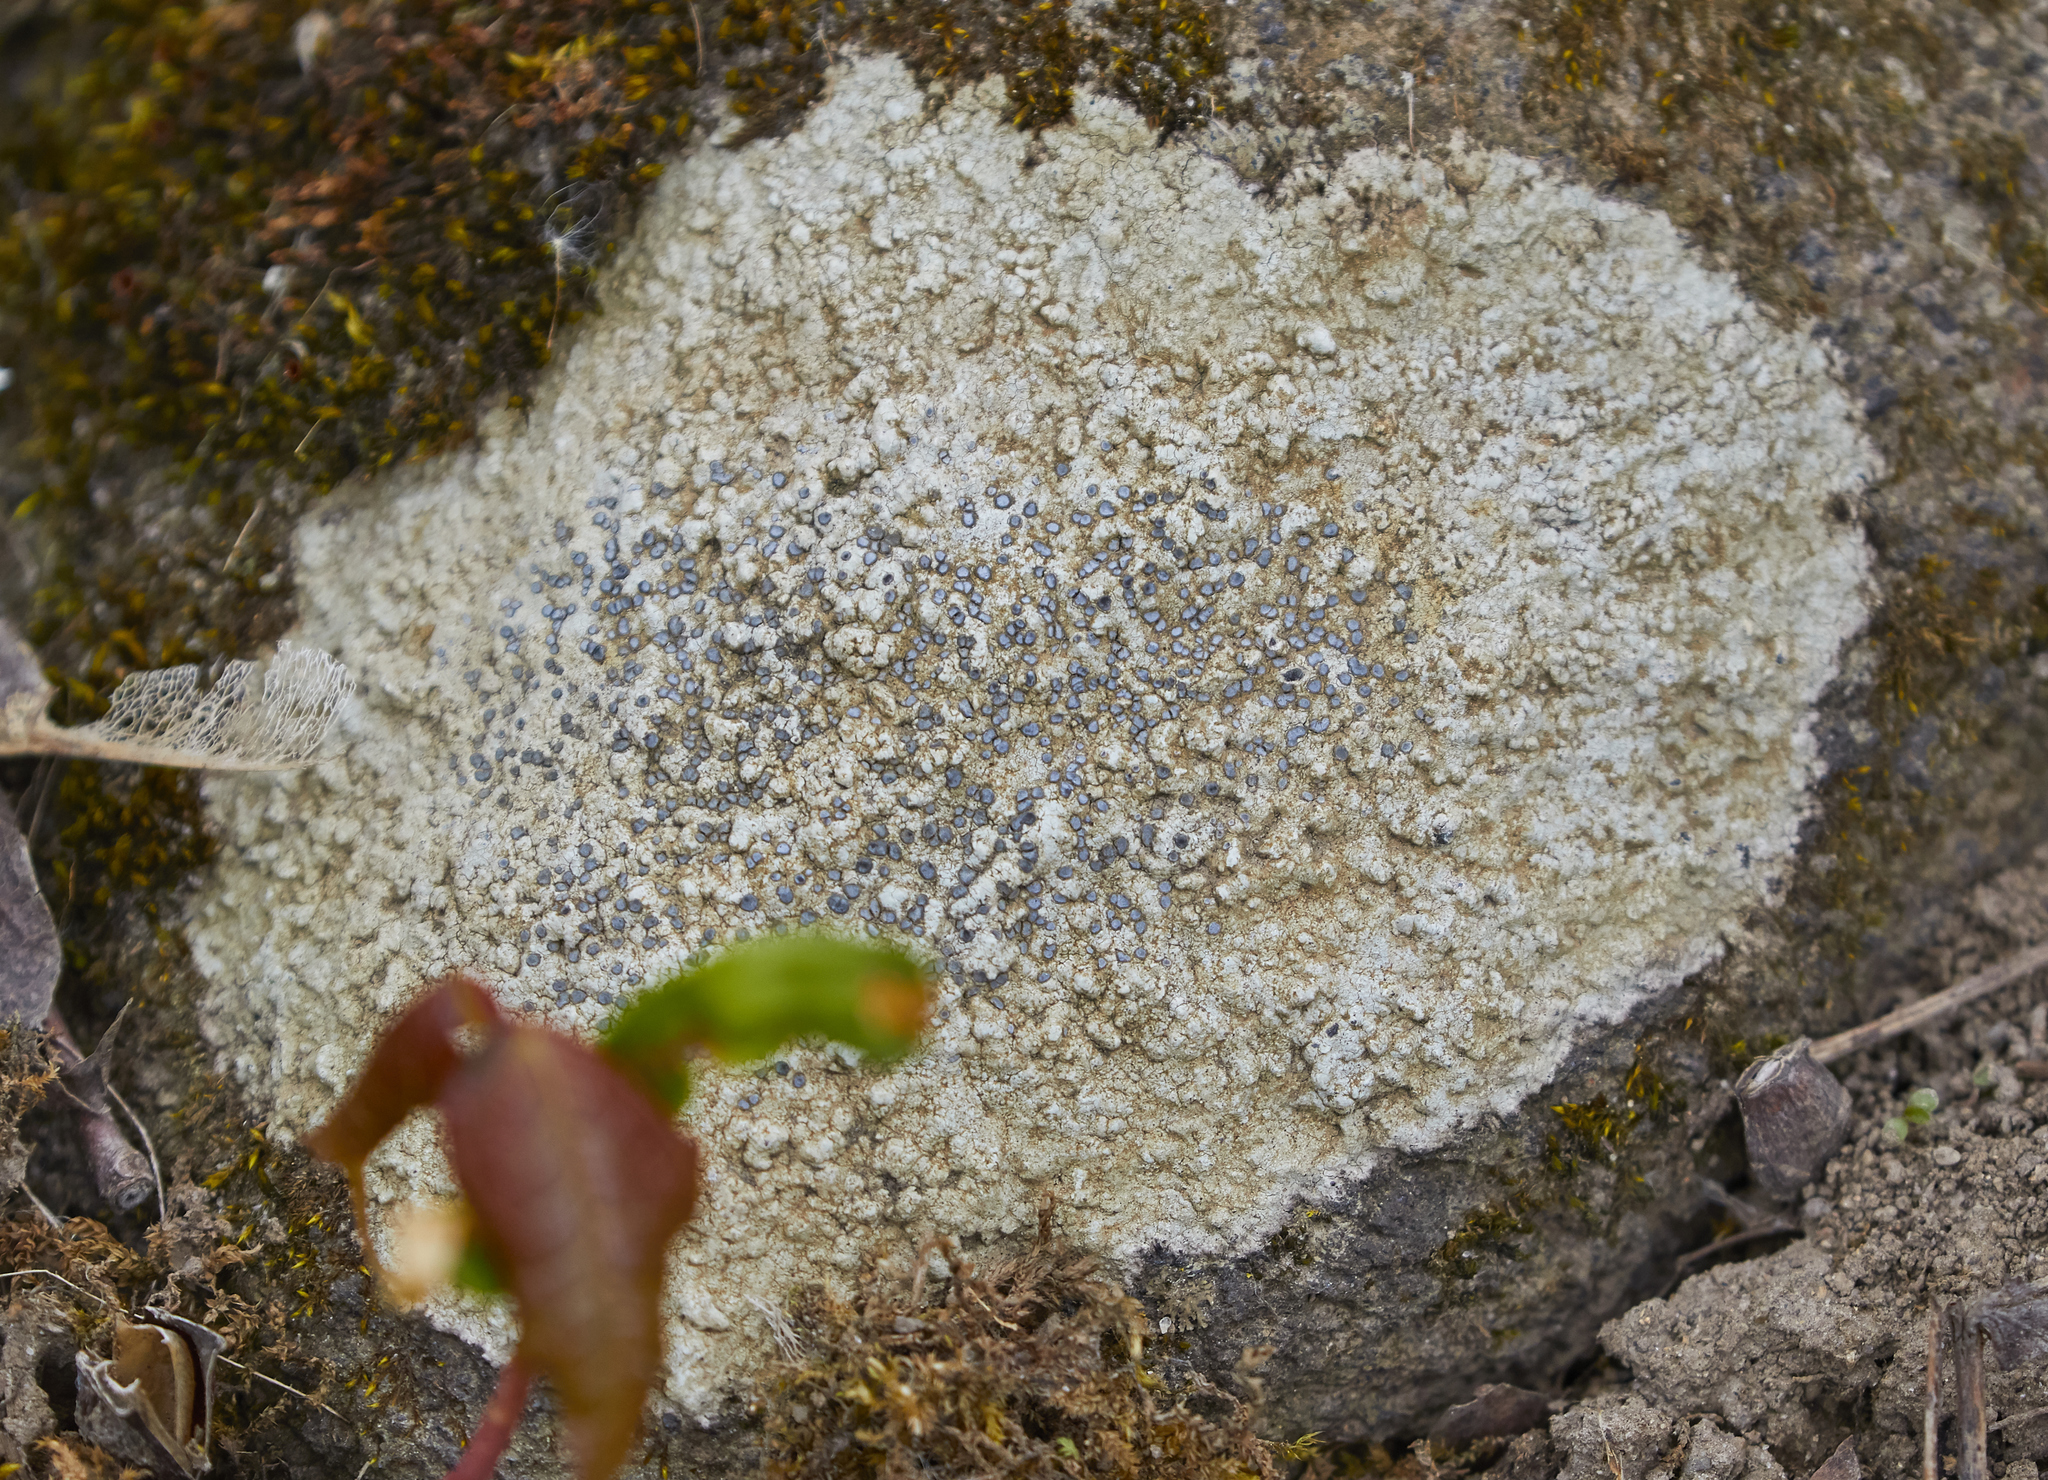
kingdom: Fungi
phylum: Ascomycota
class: Lecanoromycetes
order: Lecideales
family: Lecideaceae
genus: Porpidia
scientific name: Porpidia albocaerulescens
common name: Smokey-eyed boulder lichen
